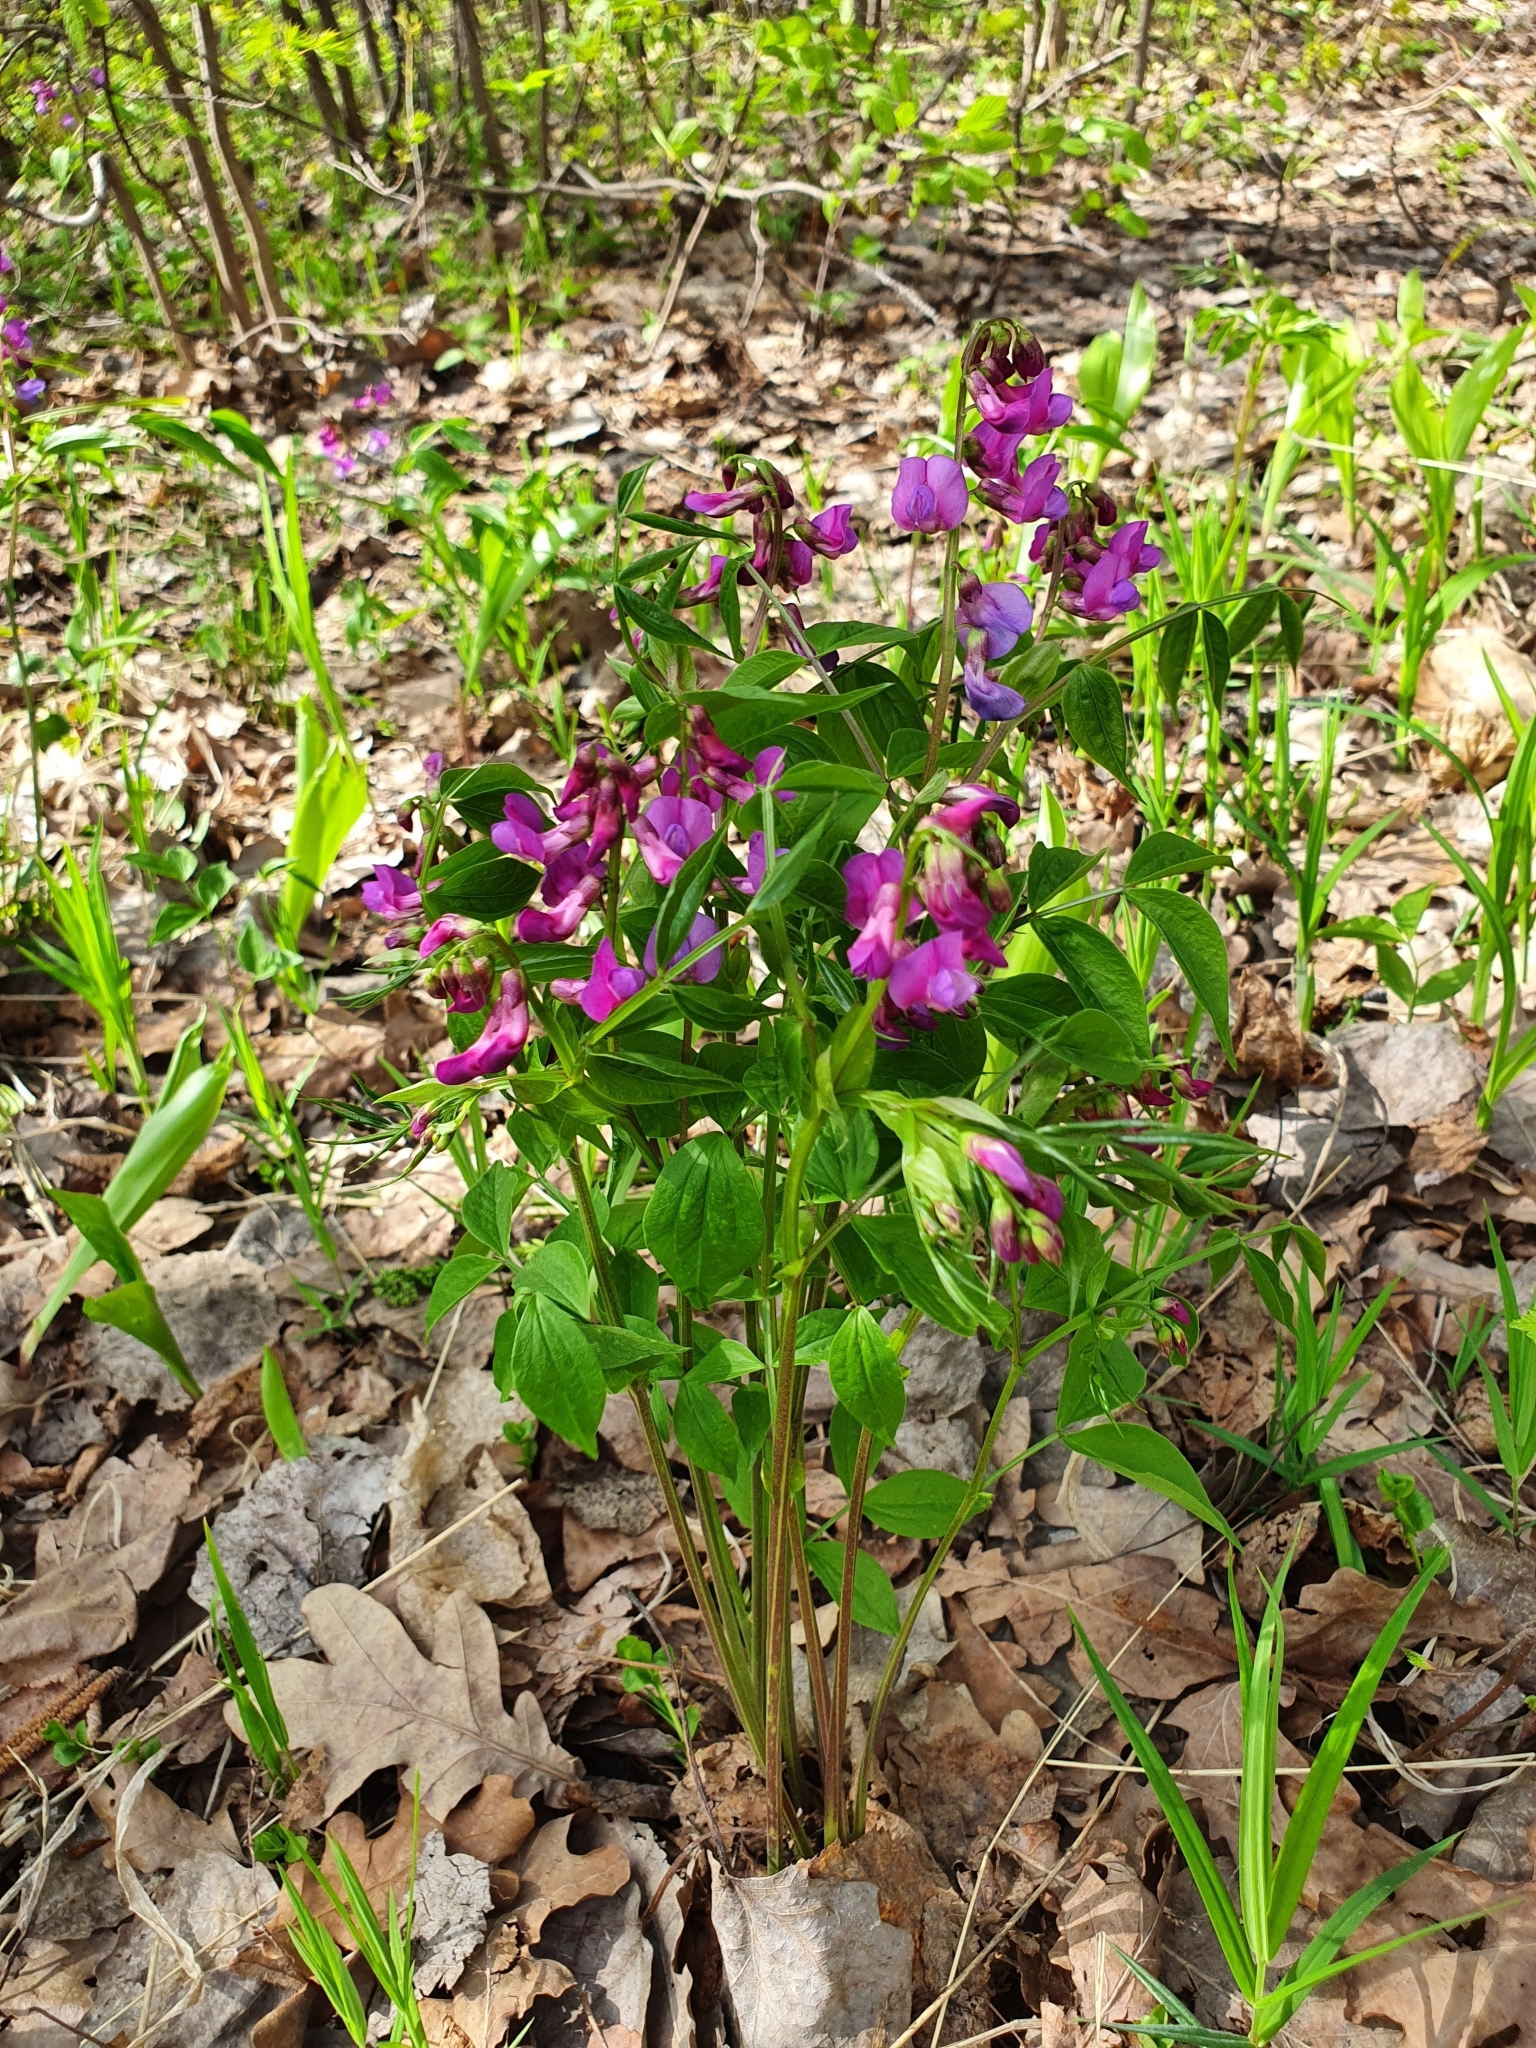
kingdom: Plantae
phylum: Tracheophyta
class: Magnoliopsida
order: Fabales
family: Fabaceae
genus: Lathyrus
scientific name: Lathyrus vernus
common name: Spring pea
